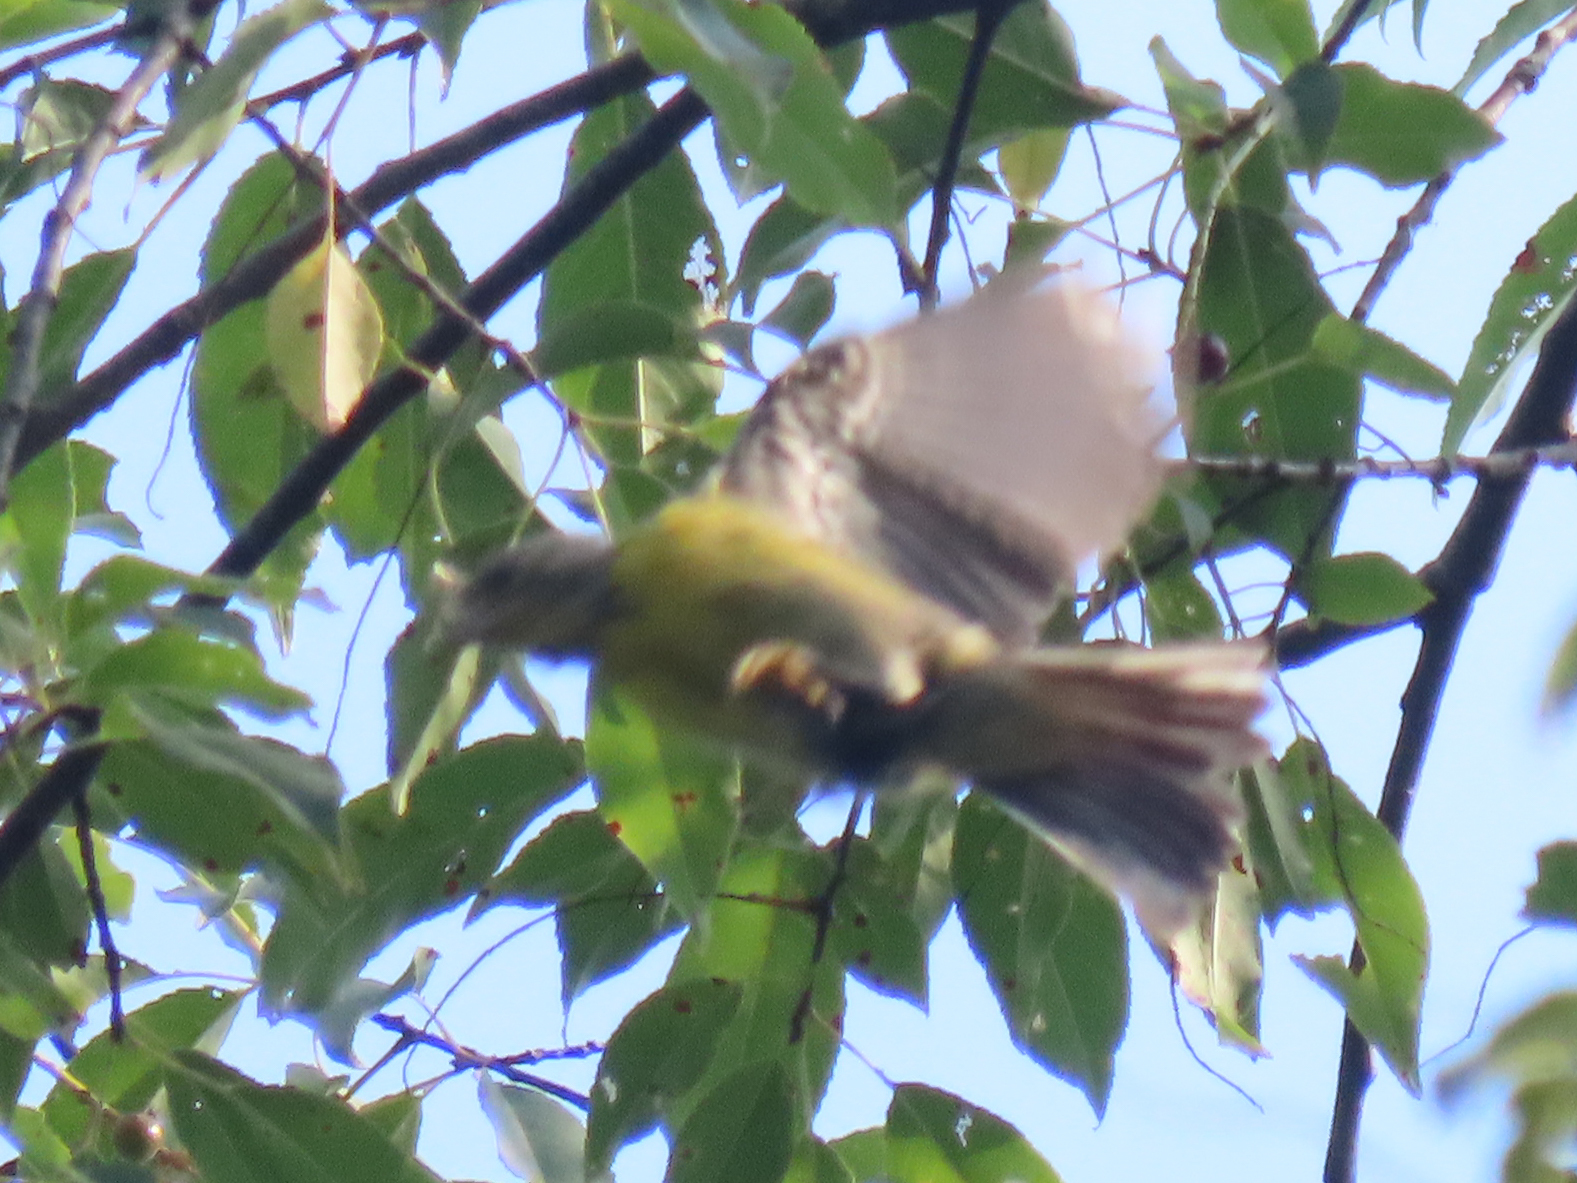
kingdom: Animalia
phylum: Chordata
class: Aves
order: Passeriformes
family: Parulidae
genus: Setophaga
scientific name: Setophaga pinus
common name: Pine warbler
